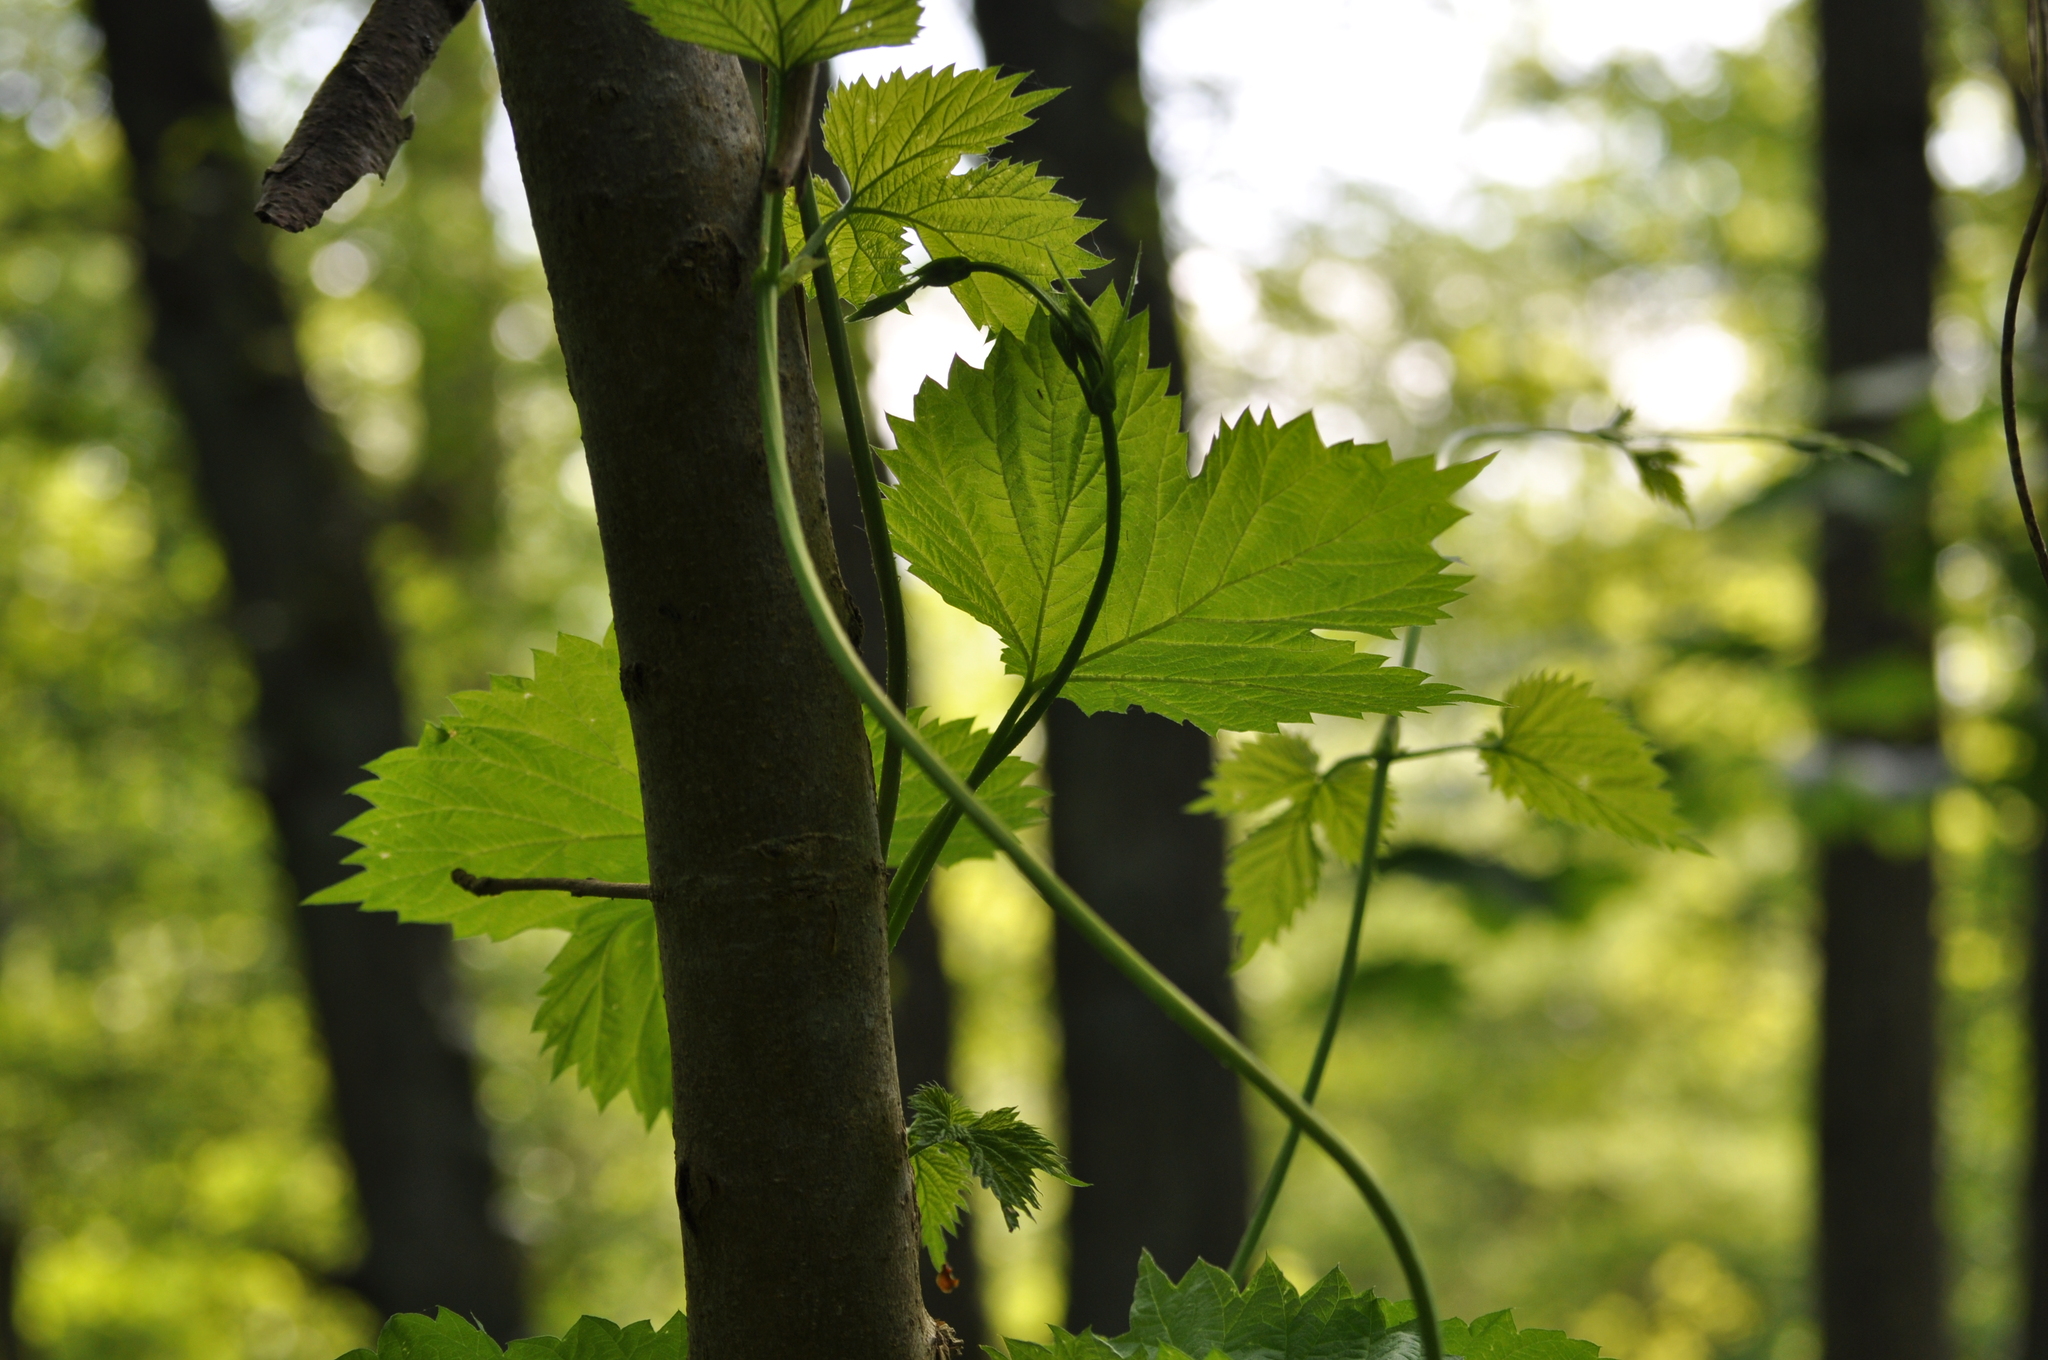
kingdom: Plantae
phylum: Tracheophyta
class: Magnoliopsida
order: Rosales
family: Cannabaceae
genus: Humulus
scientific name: Humulus lupulus
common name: Hop
